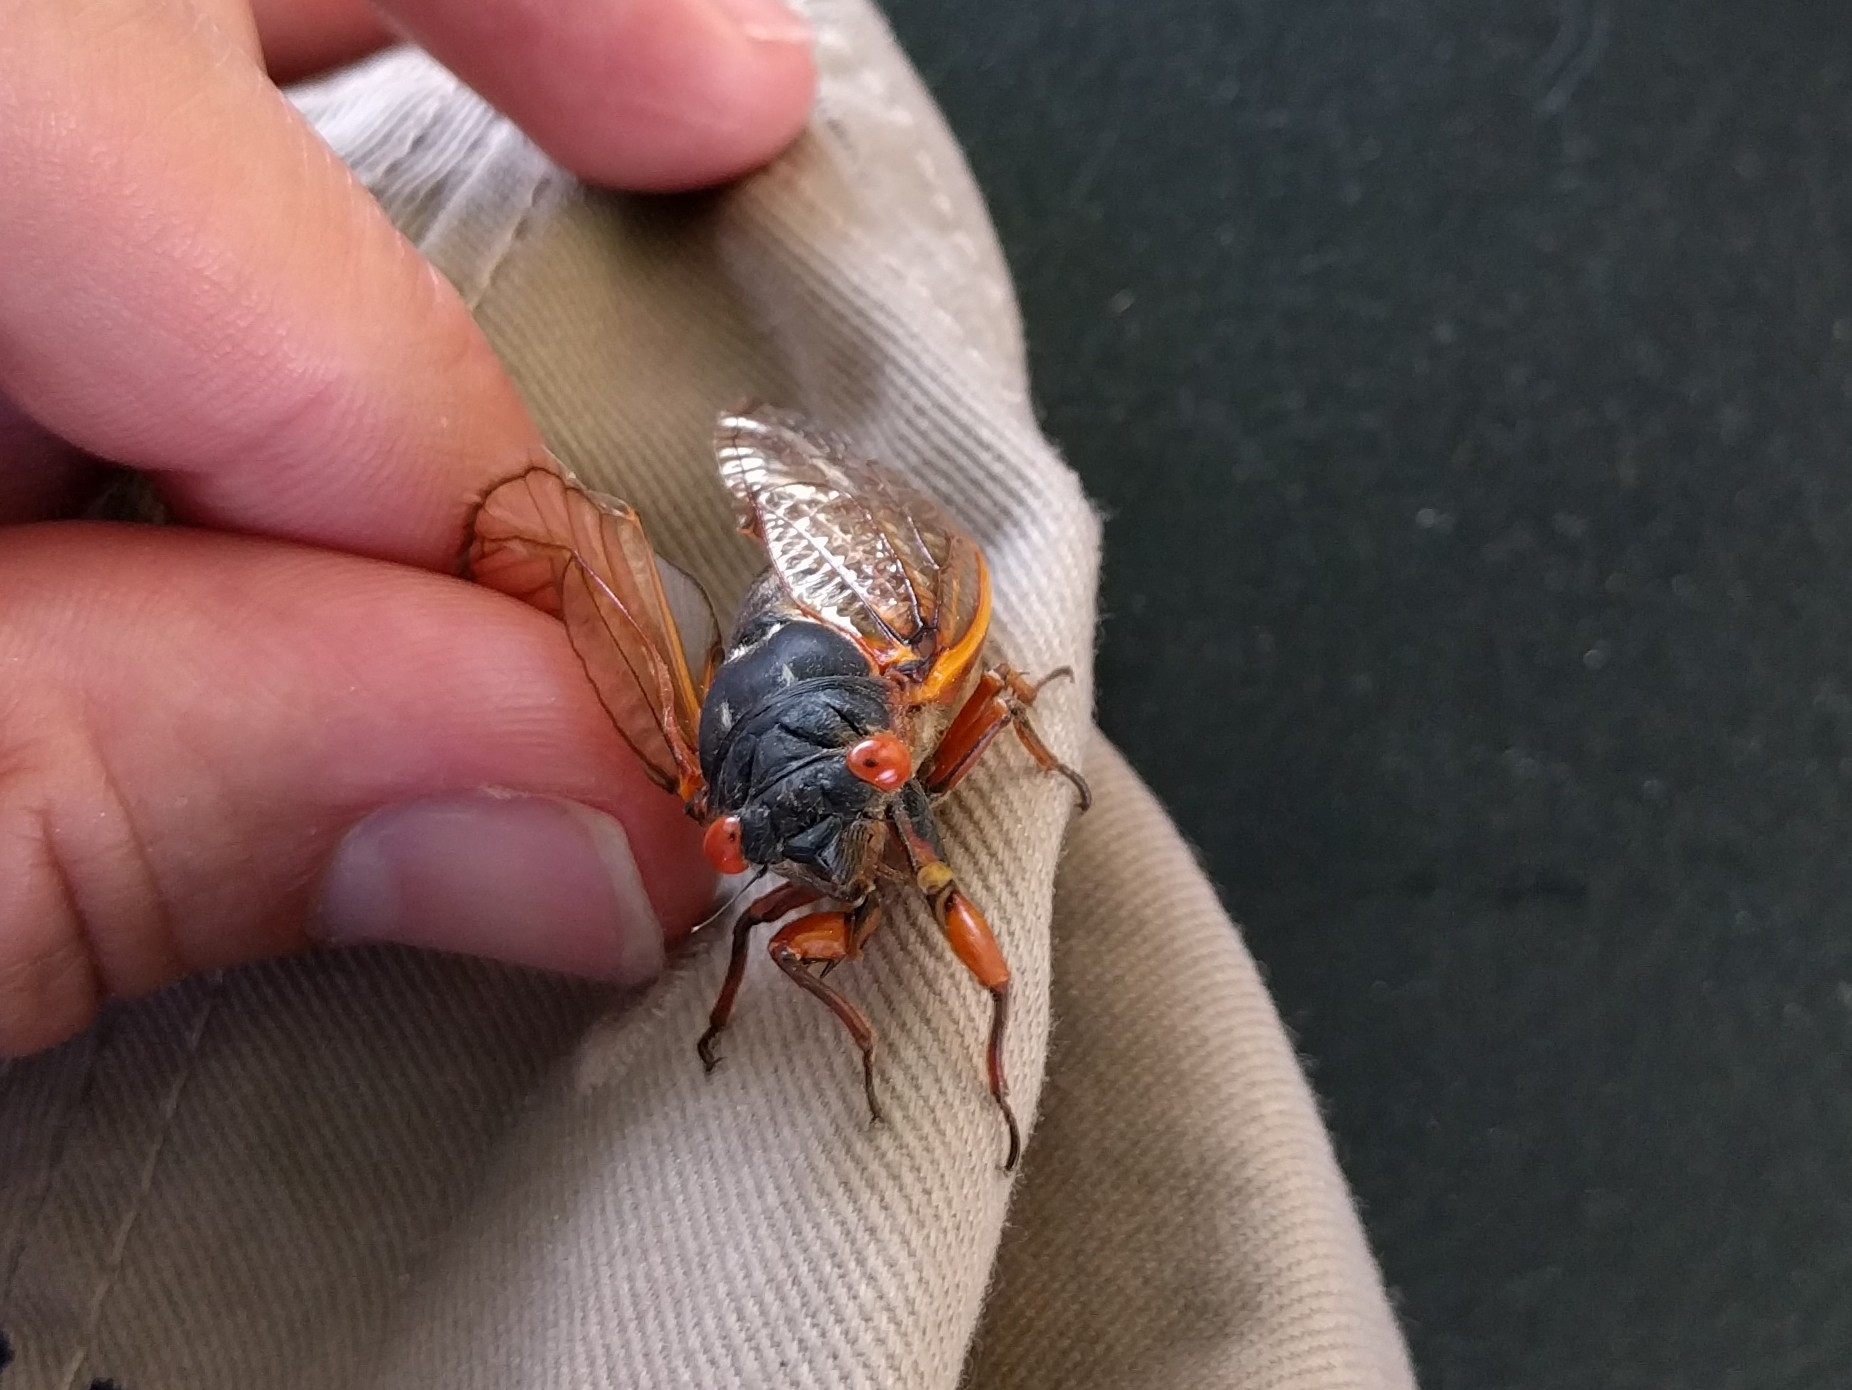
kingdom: Animalia
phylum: Arthropoda
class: Insecta
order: Hemiptera
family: Cicadidae
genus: Magicicada
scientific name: Magicicada septendecim
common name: Periodical cicada
